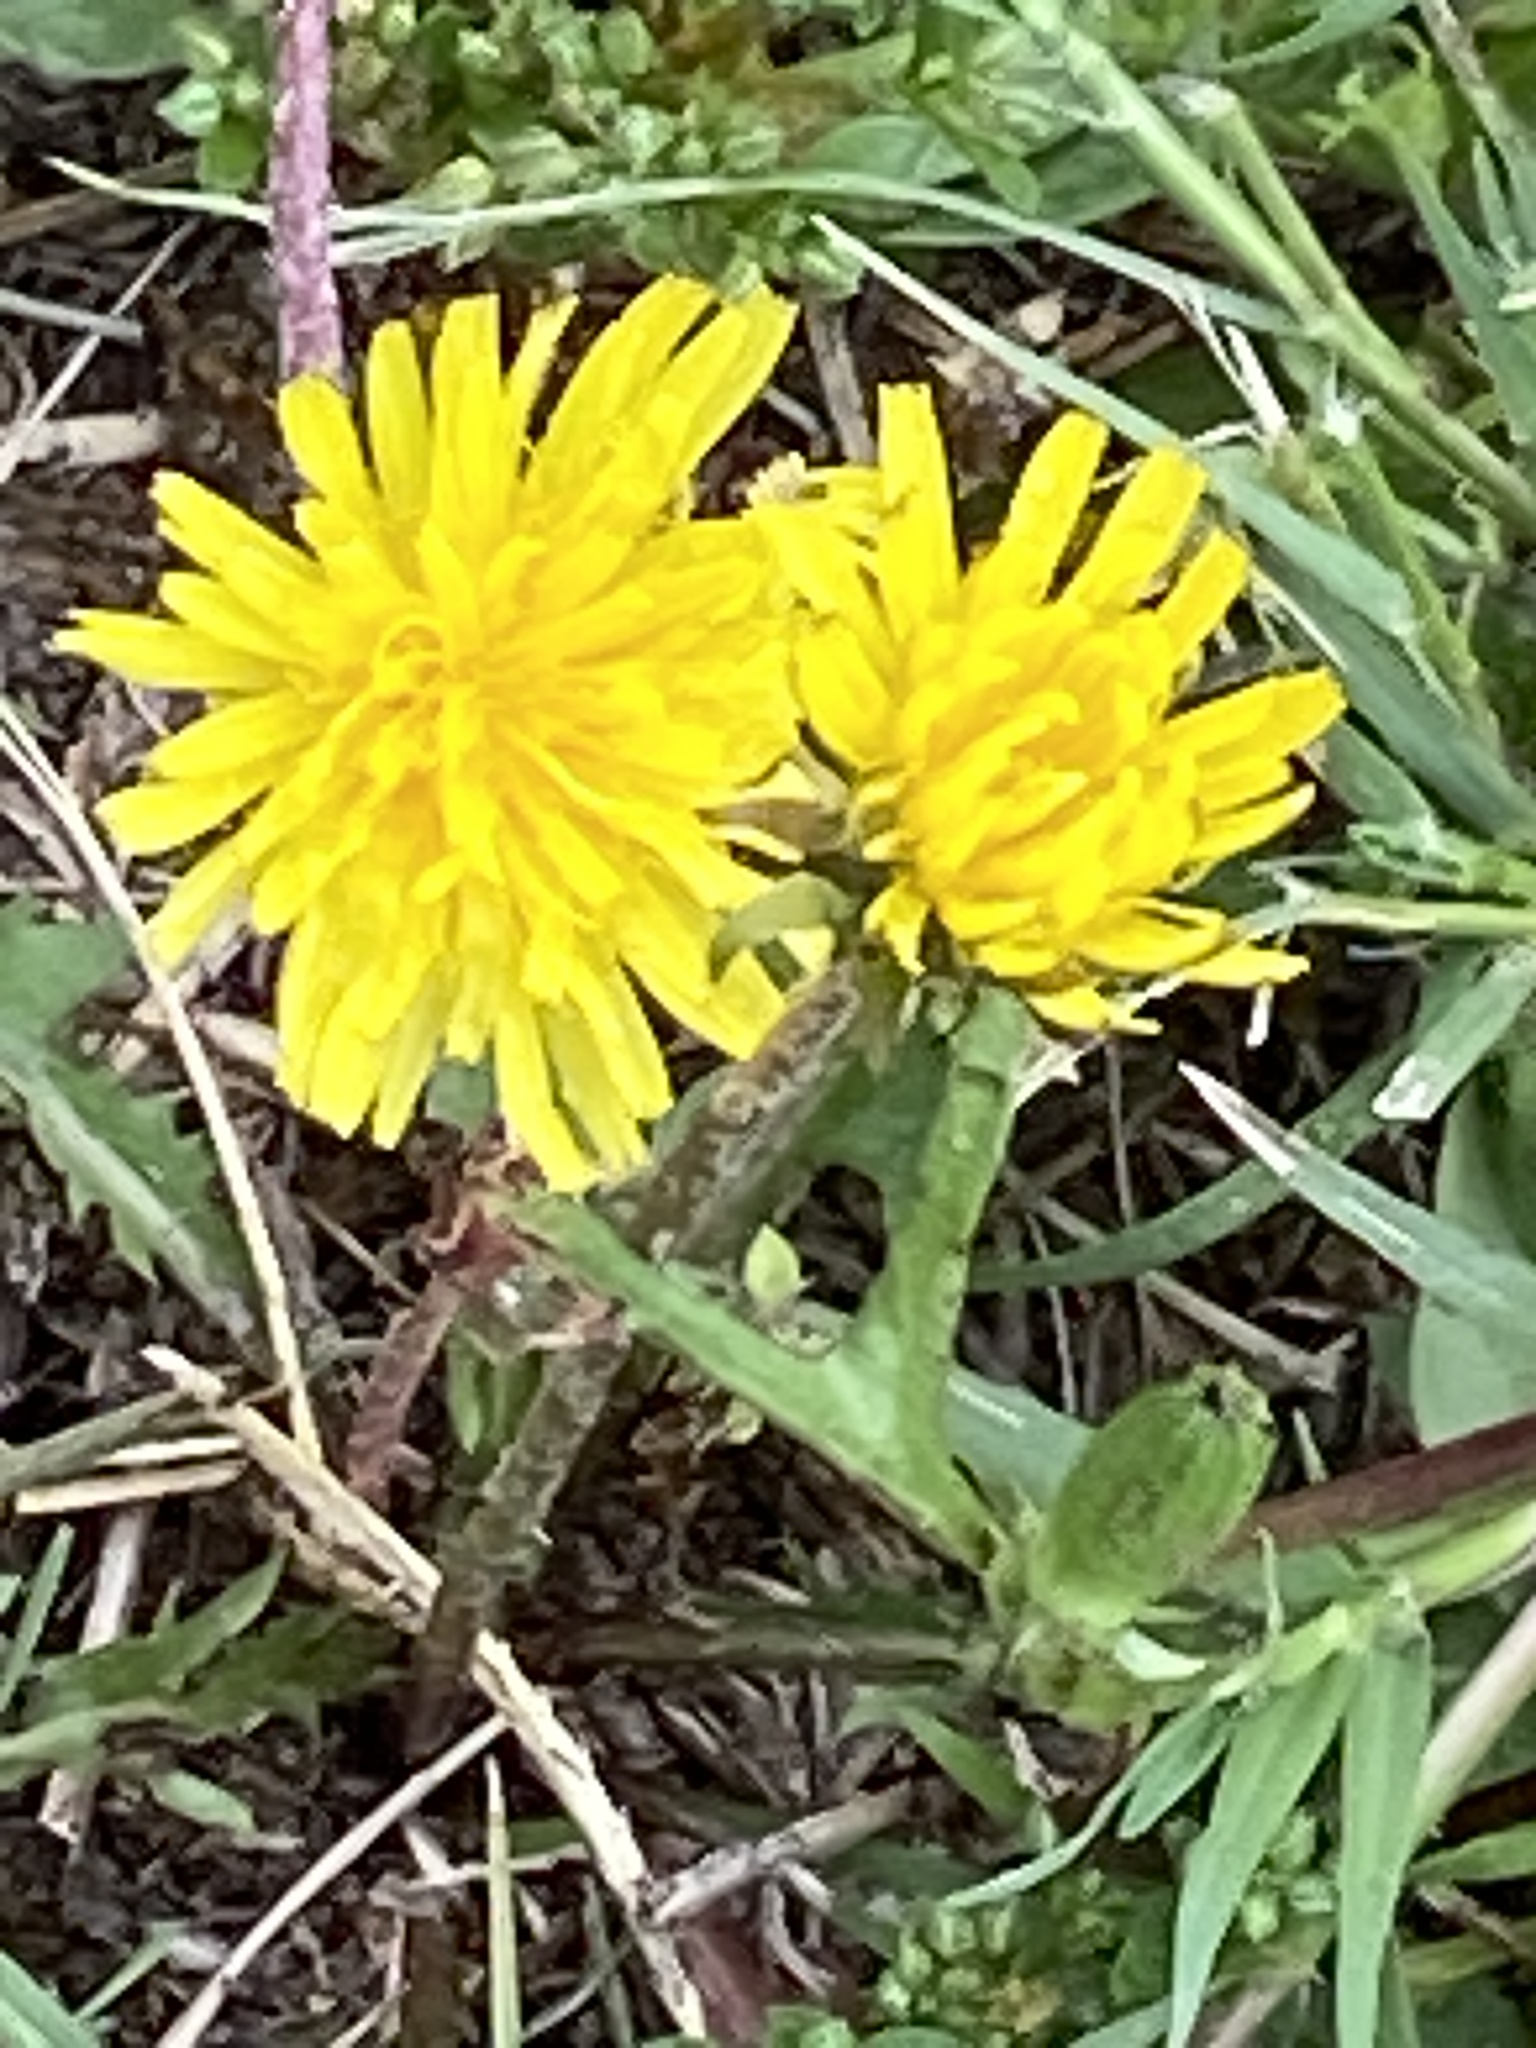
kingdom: Plantae
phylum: Tracheophyta
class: Magnoliopsida
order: Asterales
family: Asteraceae
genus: Taraxacum
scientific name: Taraxacum officinale
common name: Common dandelion
